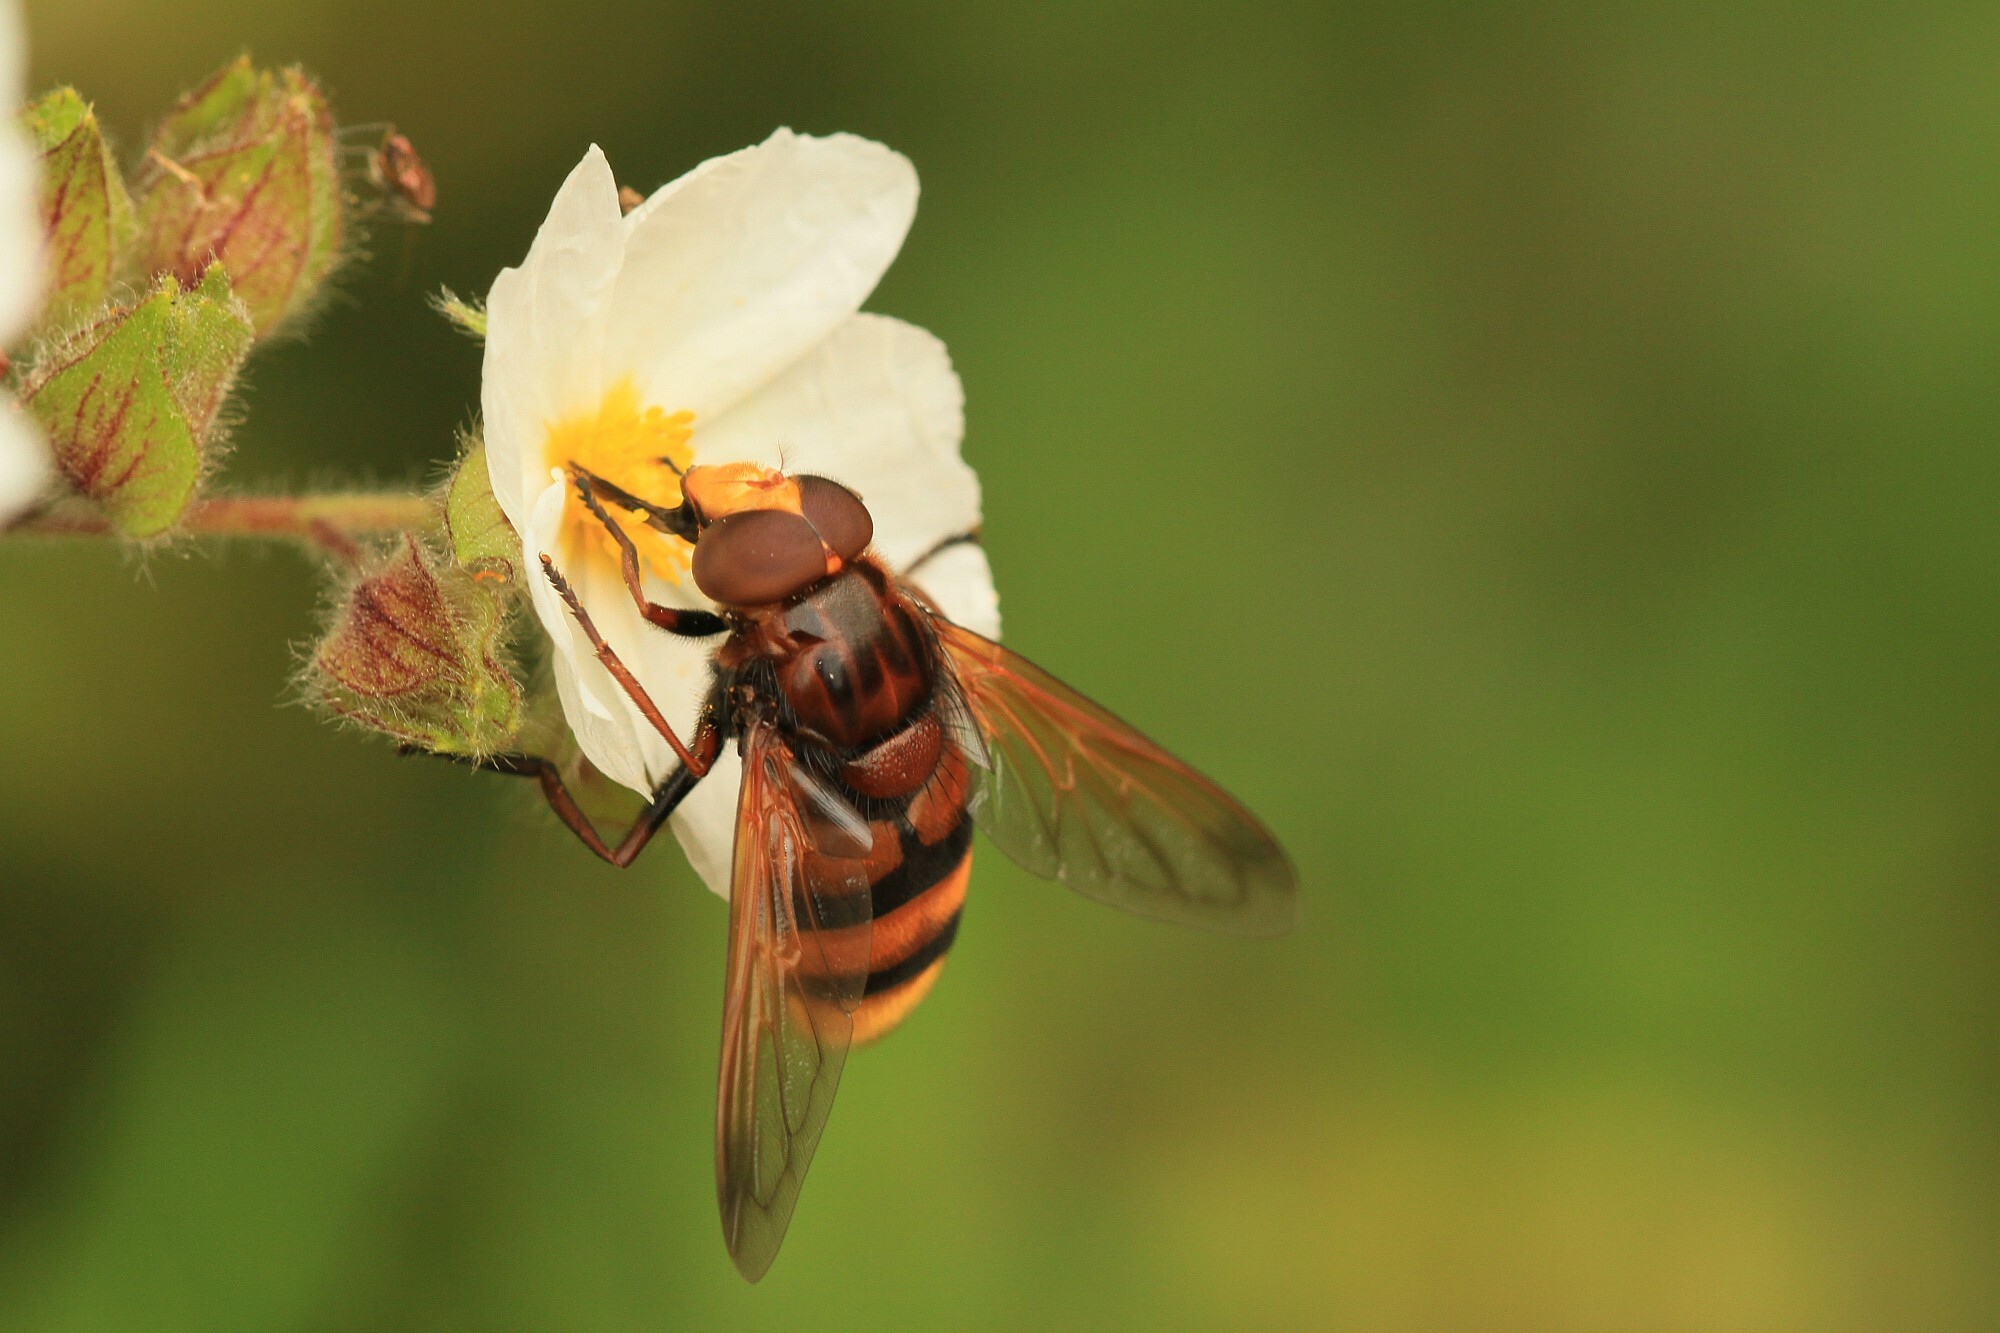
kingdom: Animalia
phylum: Arthropoda
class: Insecta
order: Diptera
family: Syrphidae
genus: Volucella
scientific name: Volucella zonaria
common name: Hornet hoverfly
